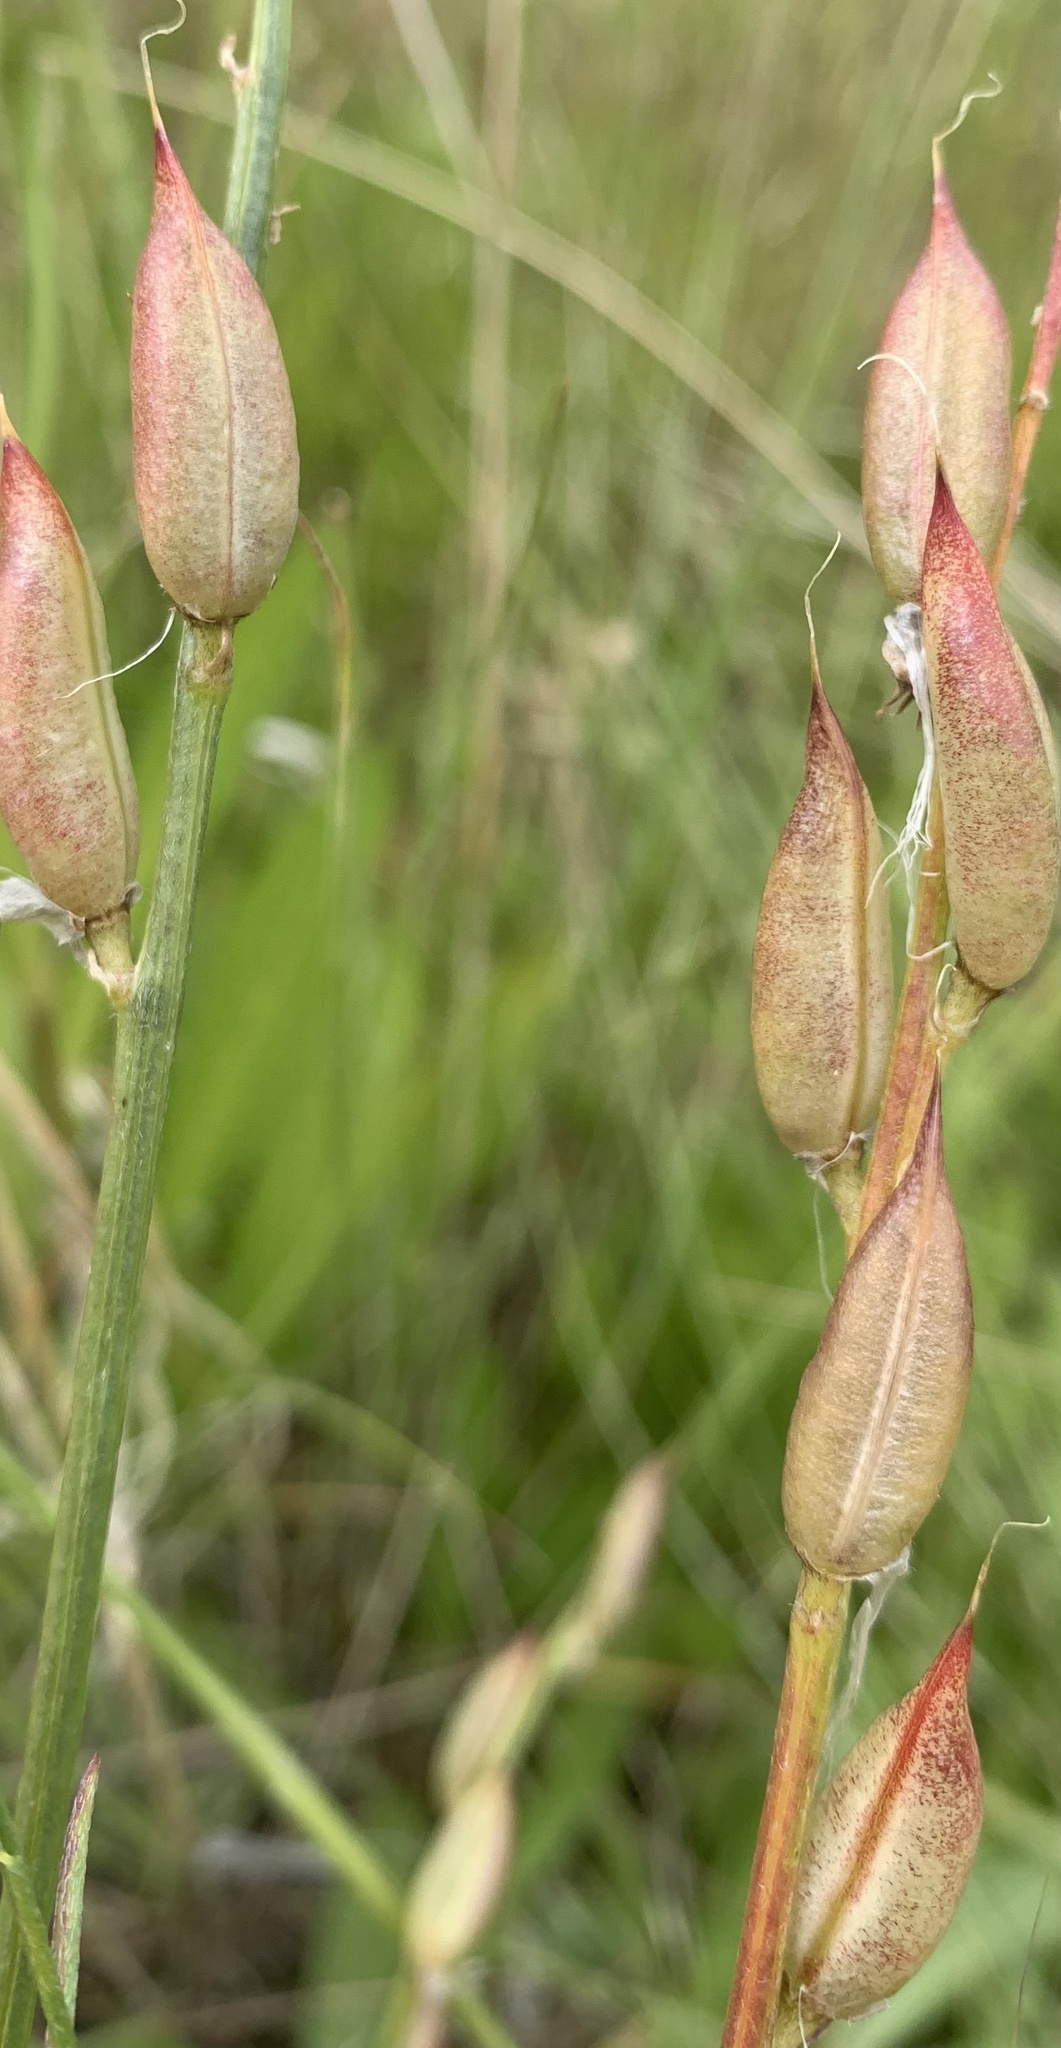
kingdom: Plantae
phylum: Tracheophyta
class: Magnoliopsida
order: Fabales
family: Fabaceae
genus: Astragalus
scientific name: Astragalus conjunctus
